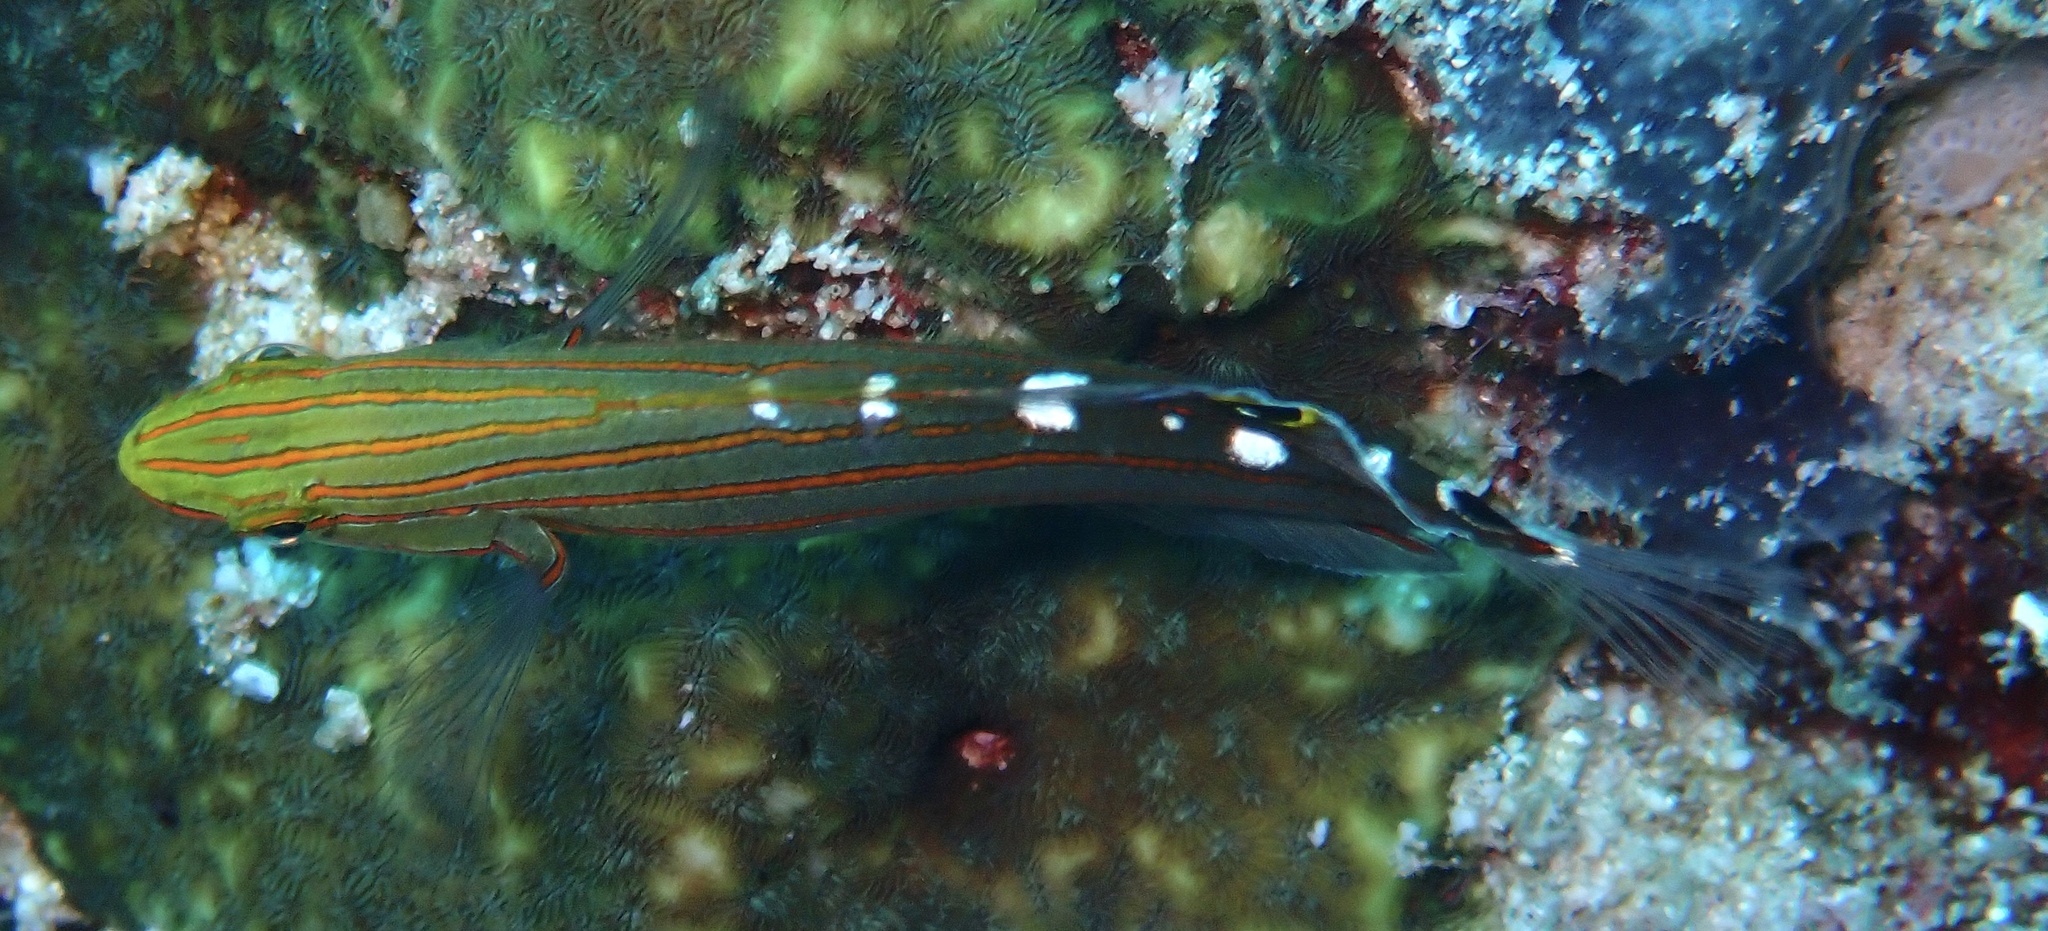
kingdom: Animalia
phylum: Chordata
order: Perciformes
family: Gobiidae
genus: Koumansetta
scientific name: Koumansetta rainfordi
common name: Old glory
